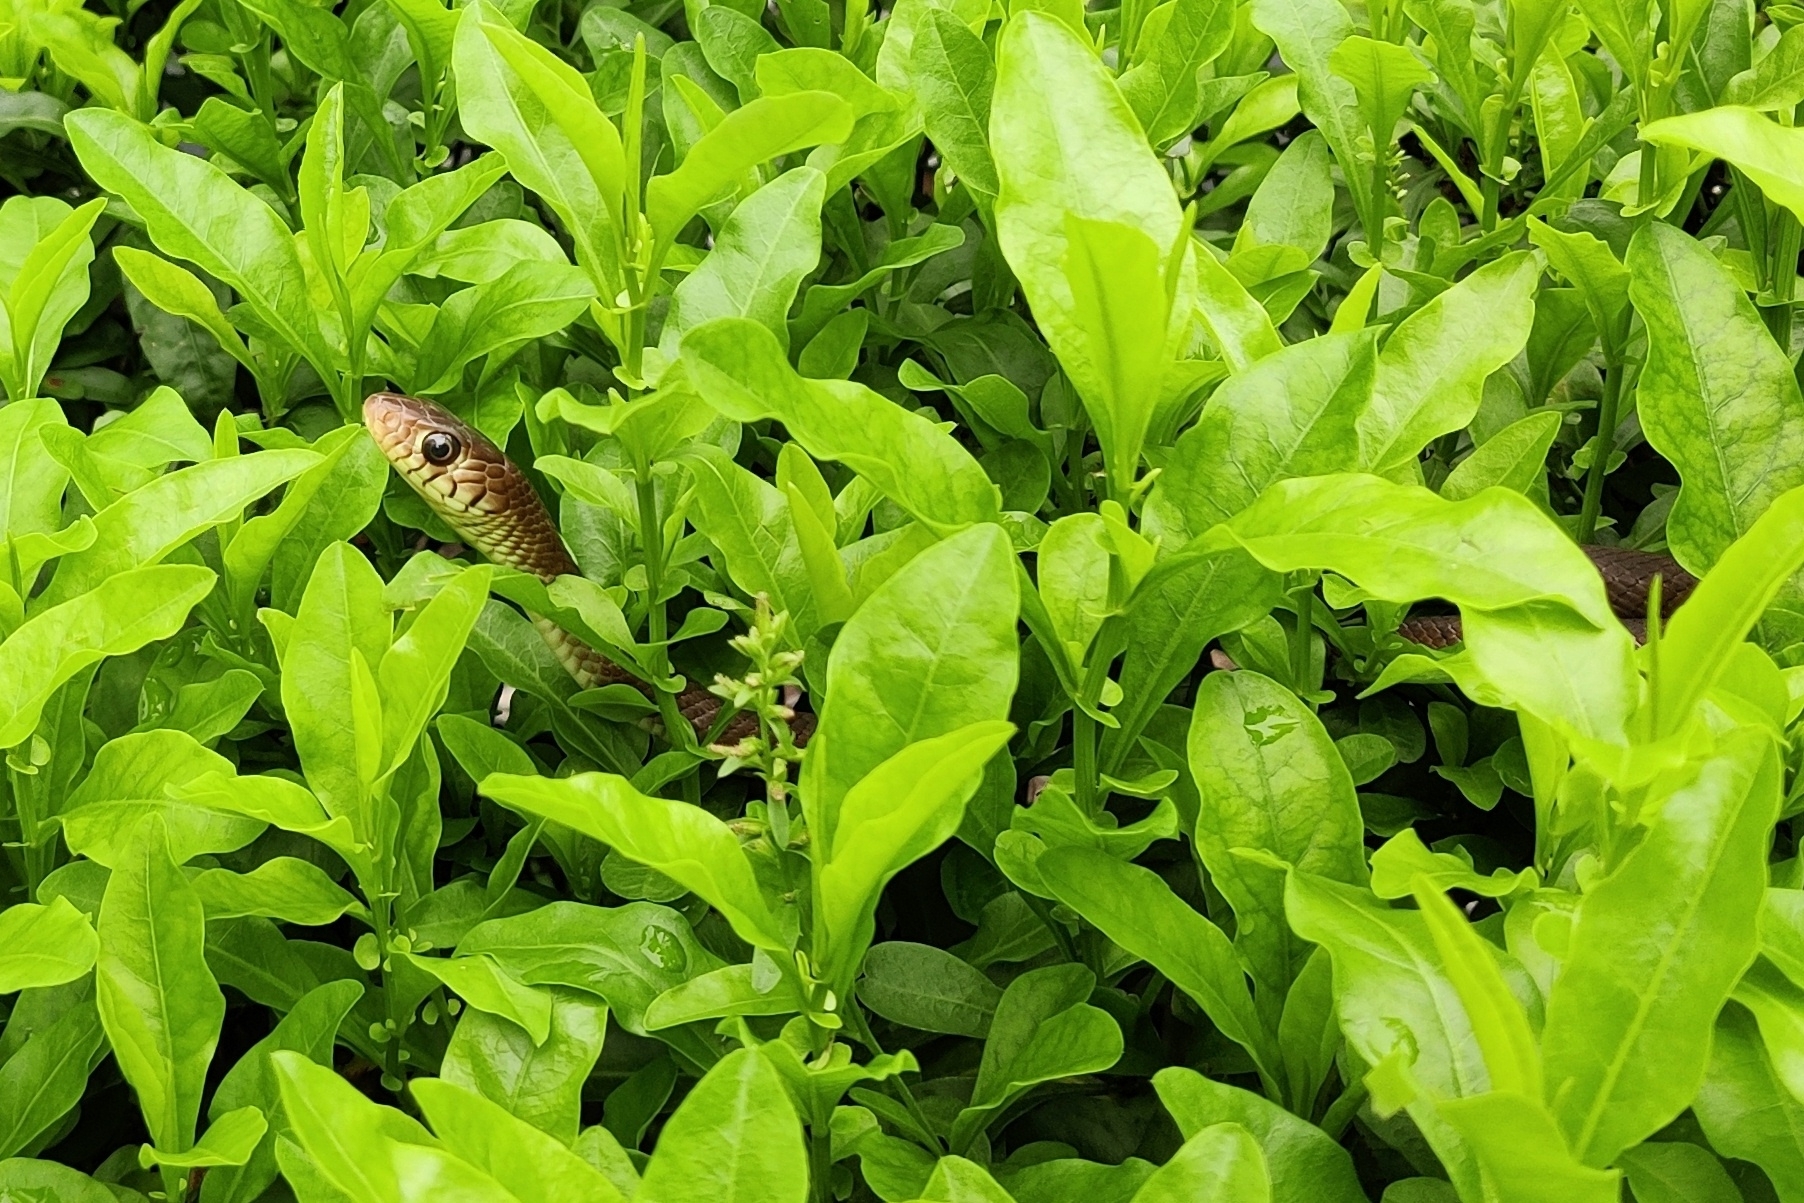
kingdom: Animalia
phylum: Chordata
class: Squamata
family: Colubridae
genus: Ptyas
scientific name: Ptyas mucosa
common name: Oriental ratsnake
